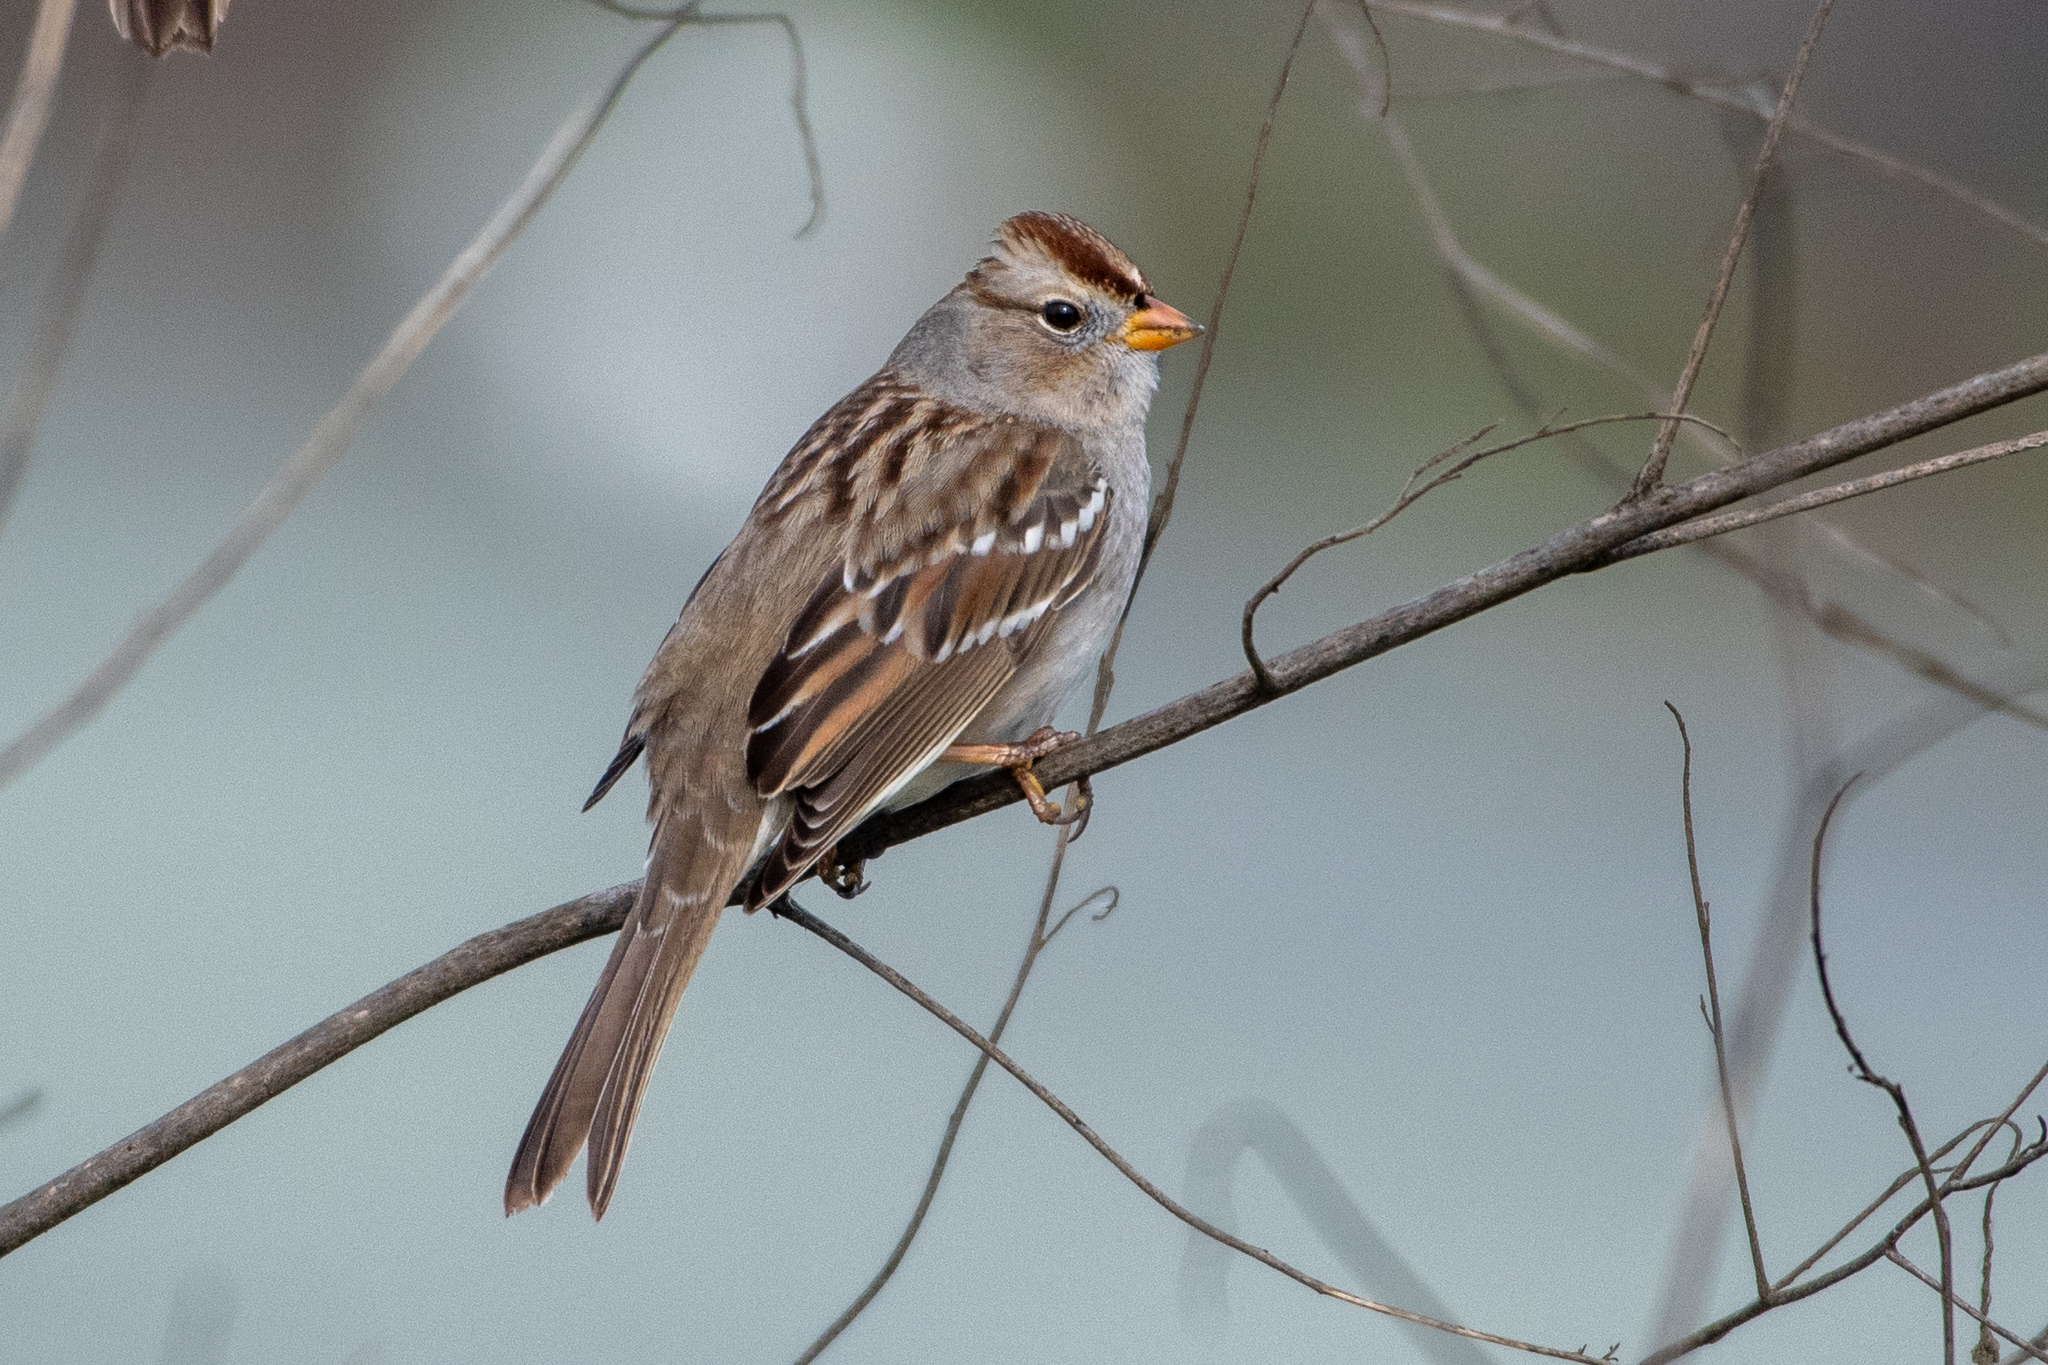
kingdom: Animalia
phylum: Chordata
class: Aves
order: Passeriformes
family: Passerellidae
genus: Zonotrichia
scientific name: Zonotrichia leucophrys
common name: White-crowned sparrow
